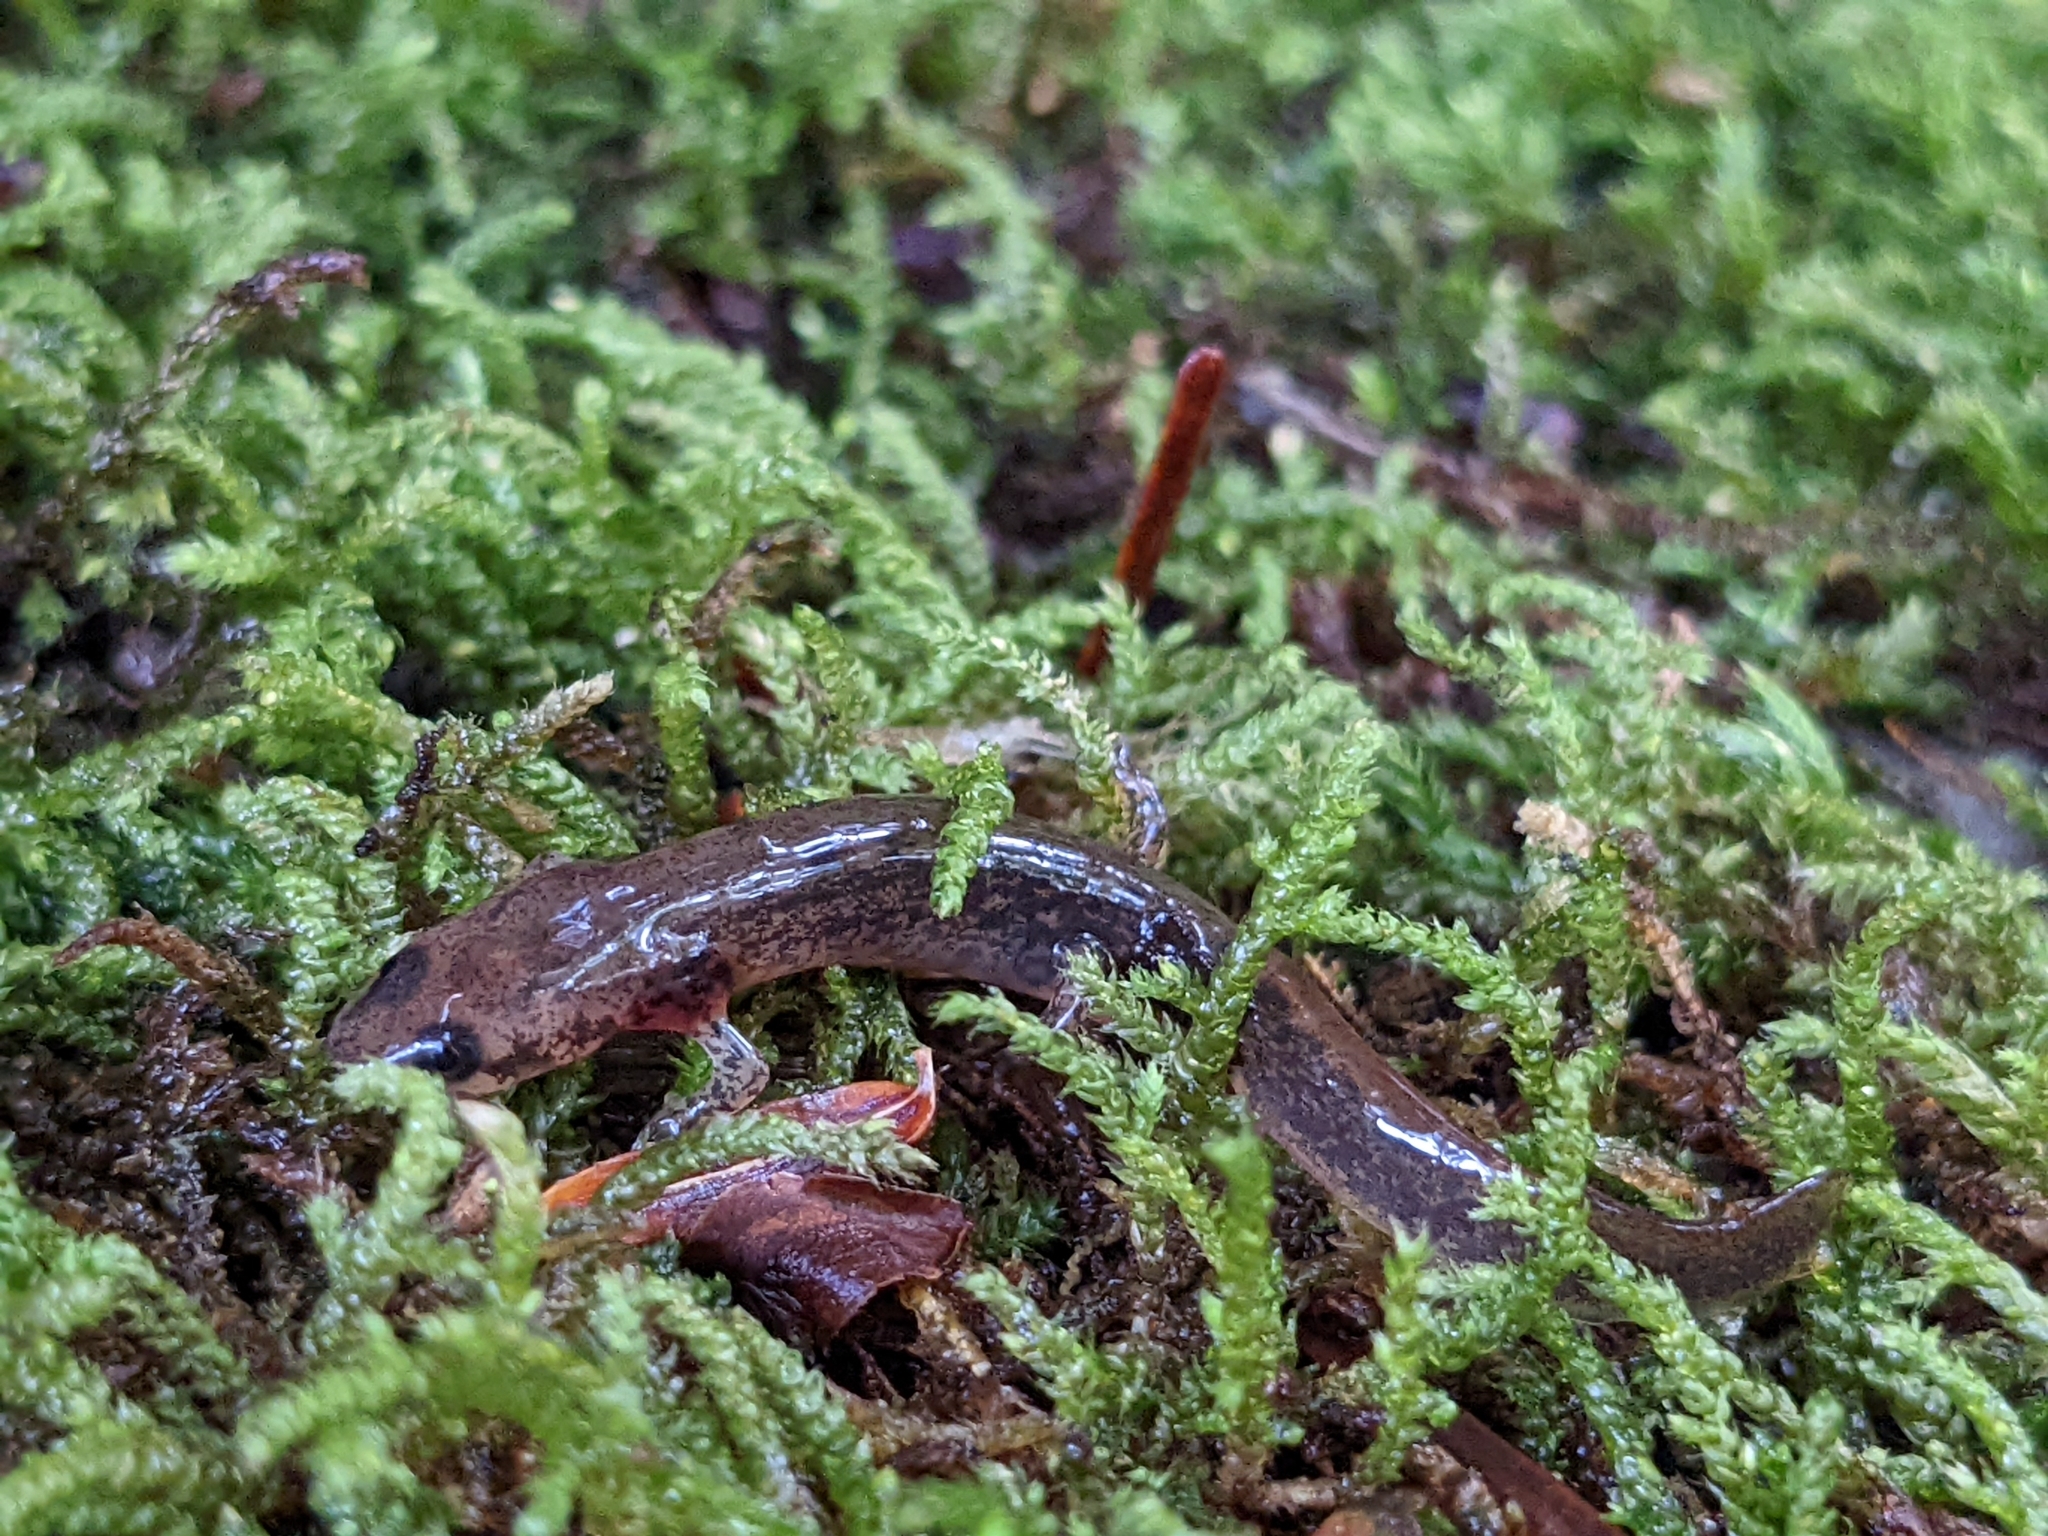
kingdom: Animalia
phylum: Chordata
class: Amphibia
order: Caudata
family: Plethodontidae
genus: Eurycea
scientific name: Eurycea bislineata
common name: Northern two-lined salamander
